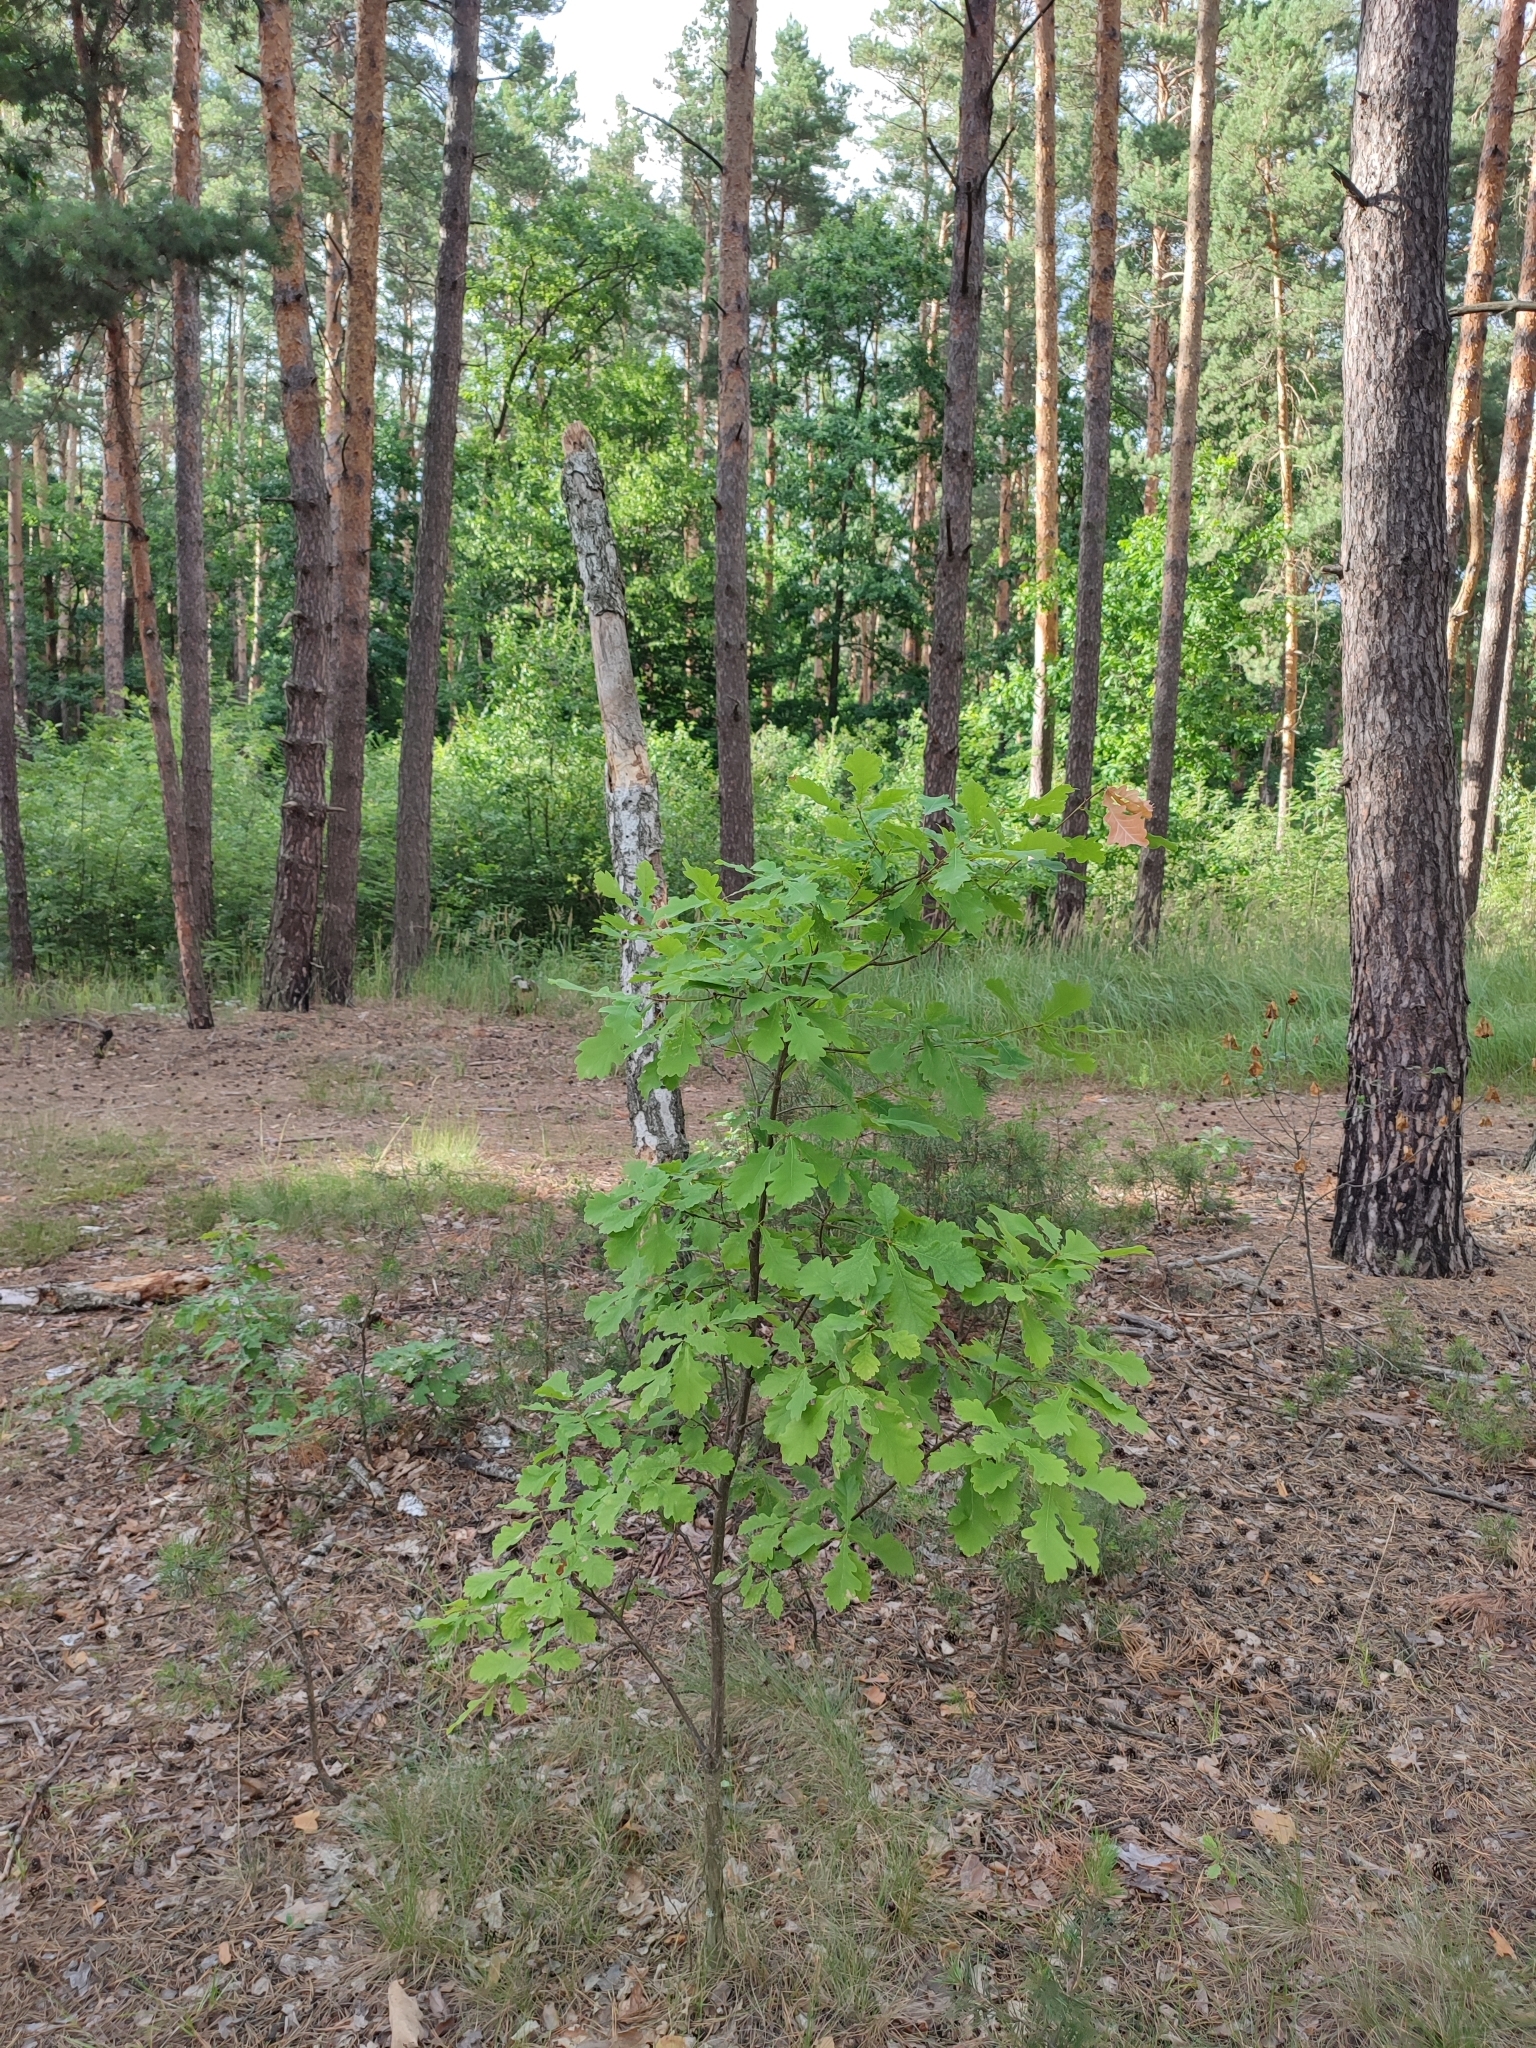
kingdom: Plantae
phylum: Tracheophyta
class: Magnoliopsida
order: Fagales
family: Fagaceae
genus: Quercus
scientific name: Quercus robur
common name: Pedunculate oak
